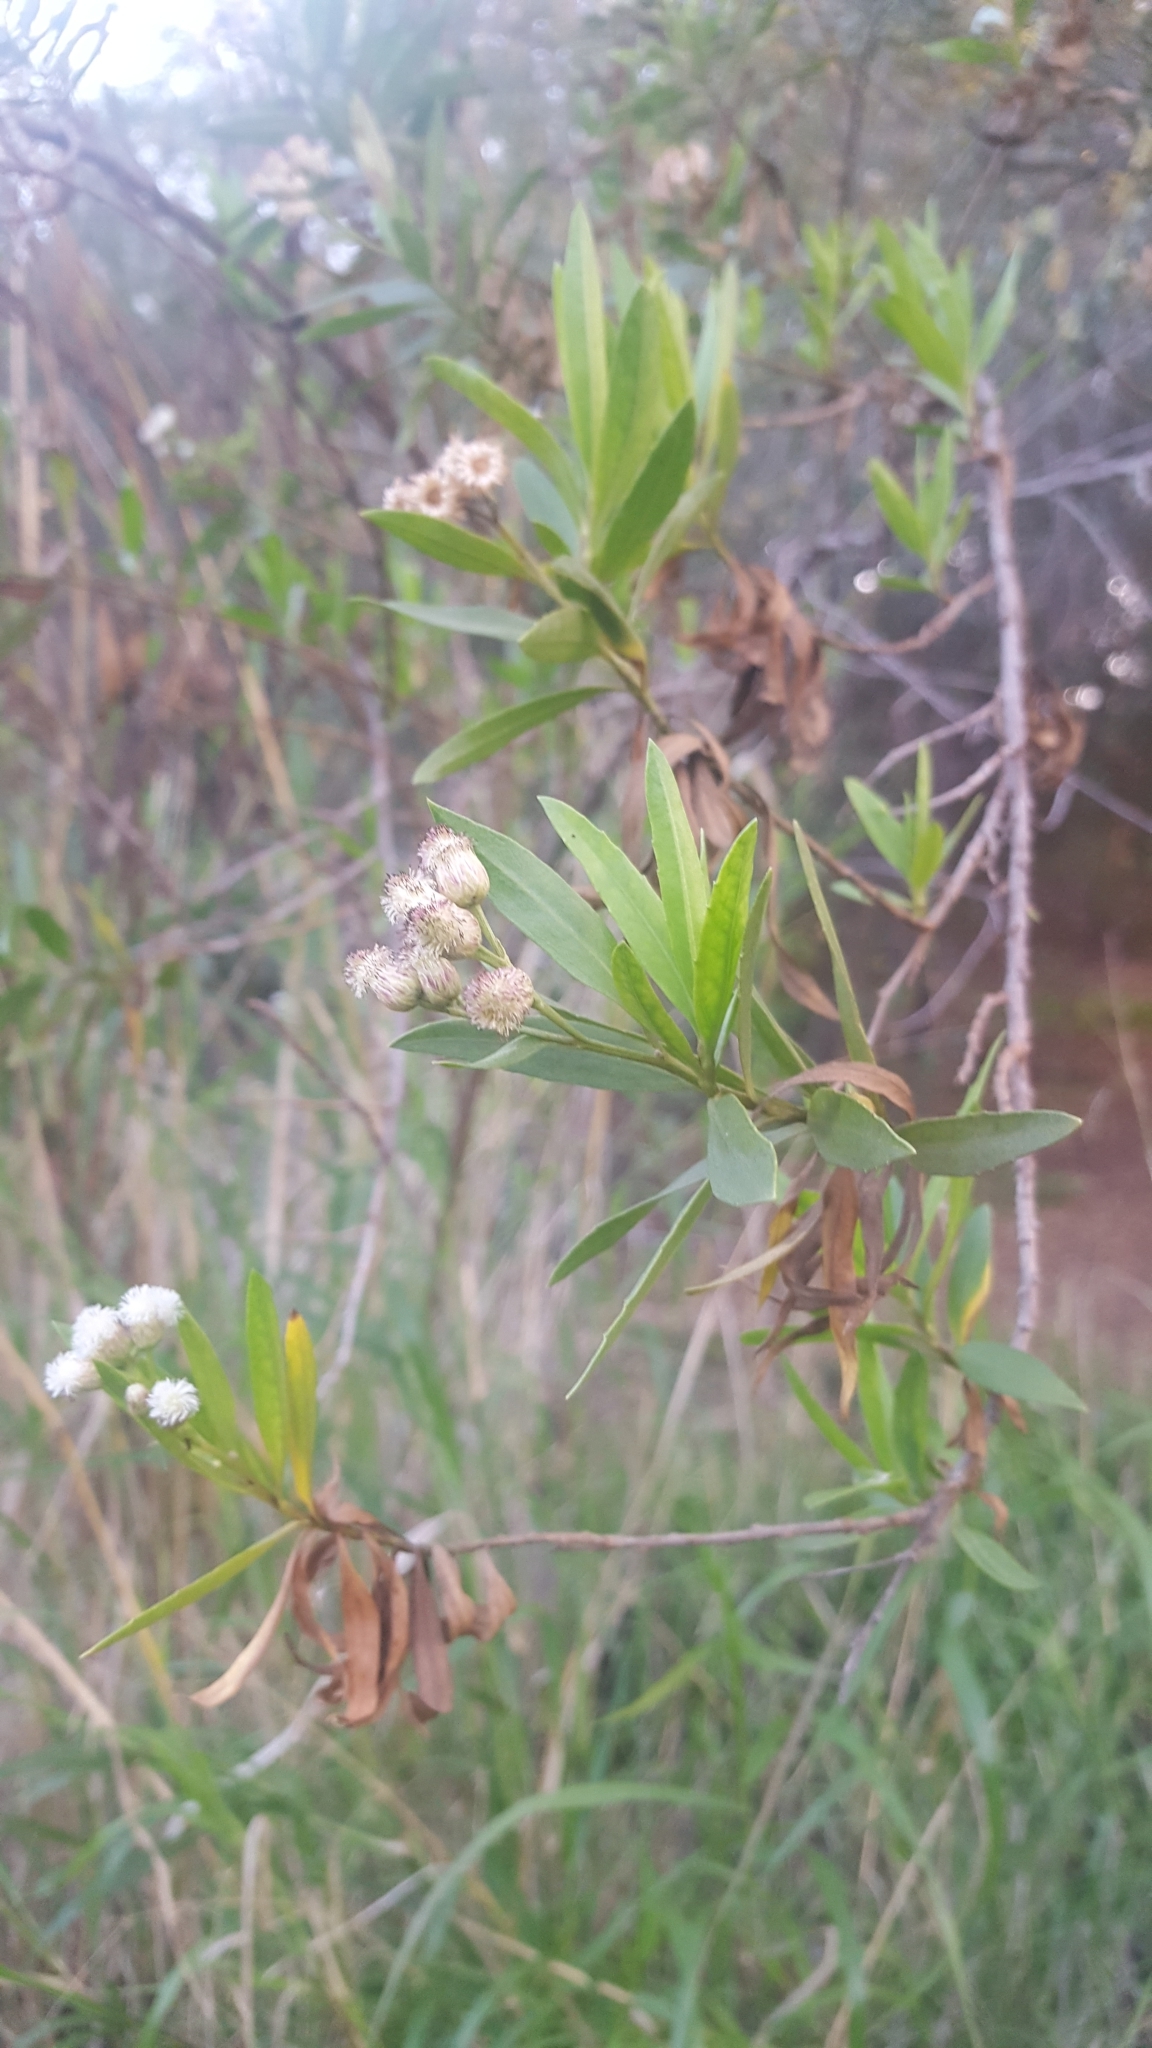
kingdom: Plantae
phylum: Tracheophyta
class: Magnoliopsida
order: Asterales
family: Asteraceae
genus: Baccharis
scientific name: Baccharis salicifolia
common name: Sticky baccharis
